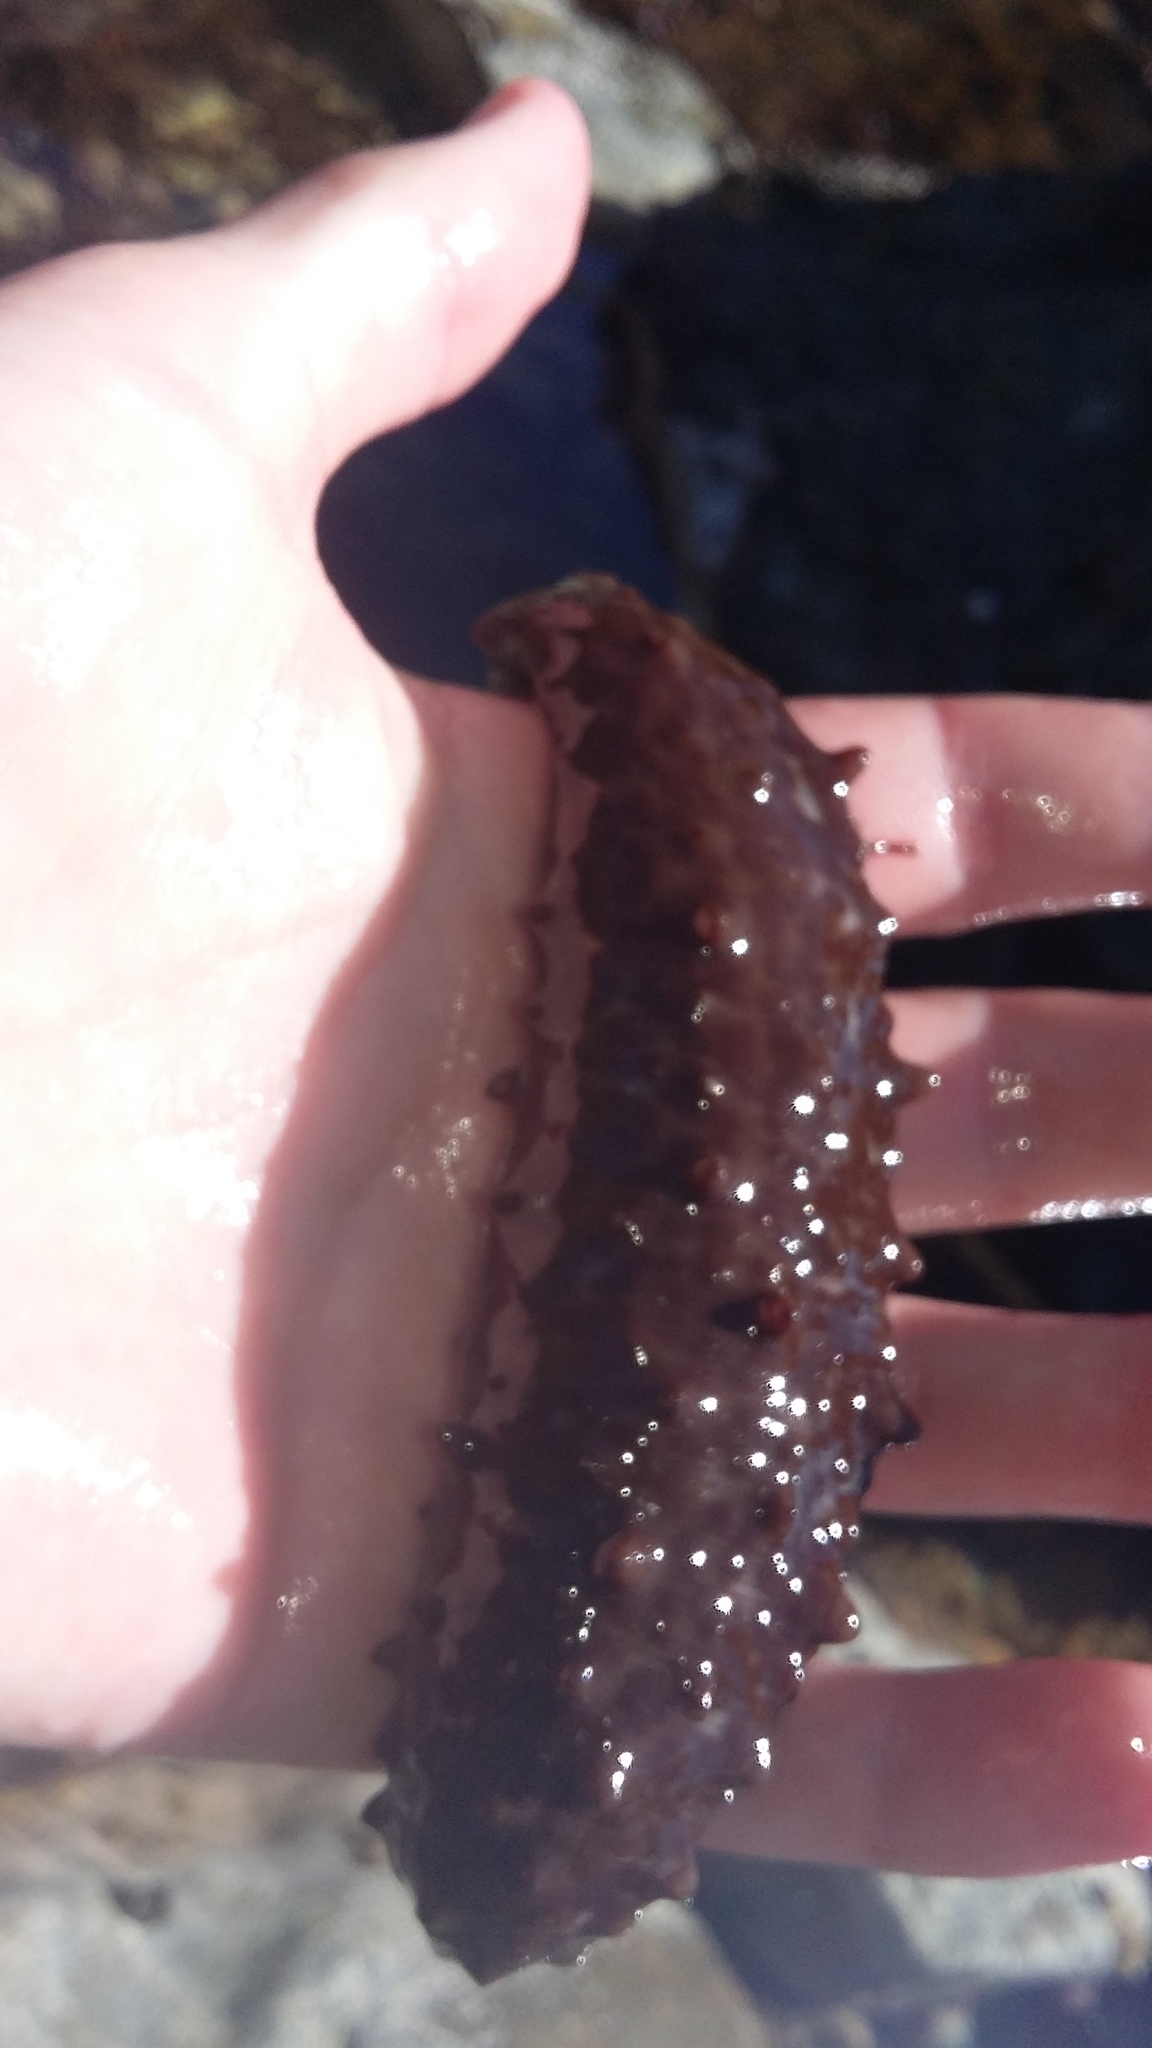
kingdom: Animalia
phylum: Echinodermata
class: Holothuroidea
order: Synallactida
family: Stichopodidae
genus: Australostichopus
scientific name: Australostichopus mollis
